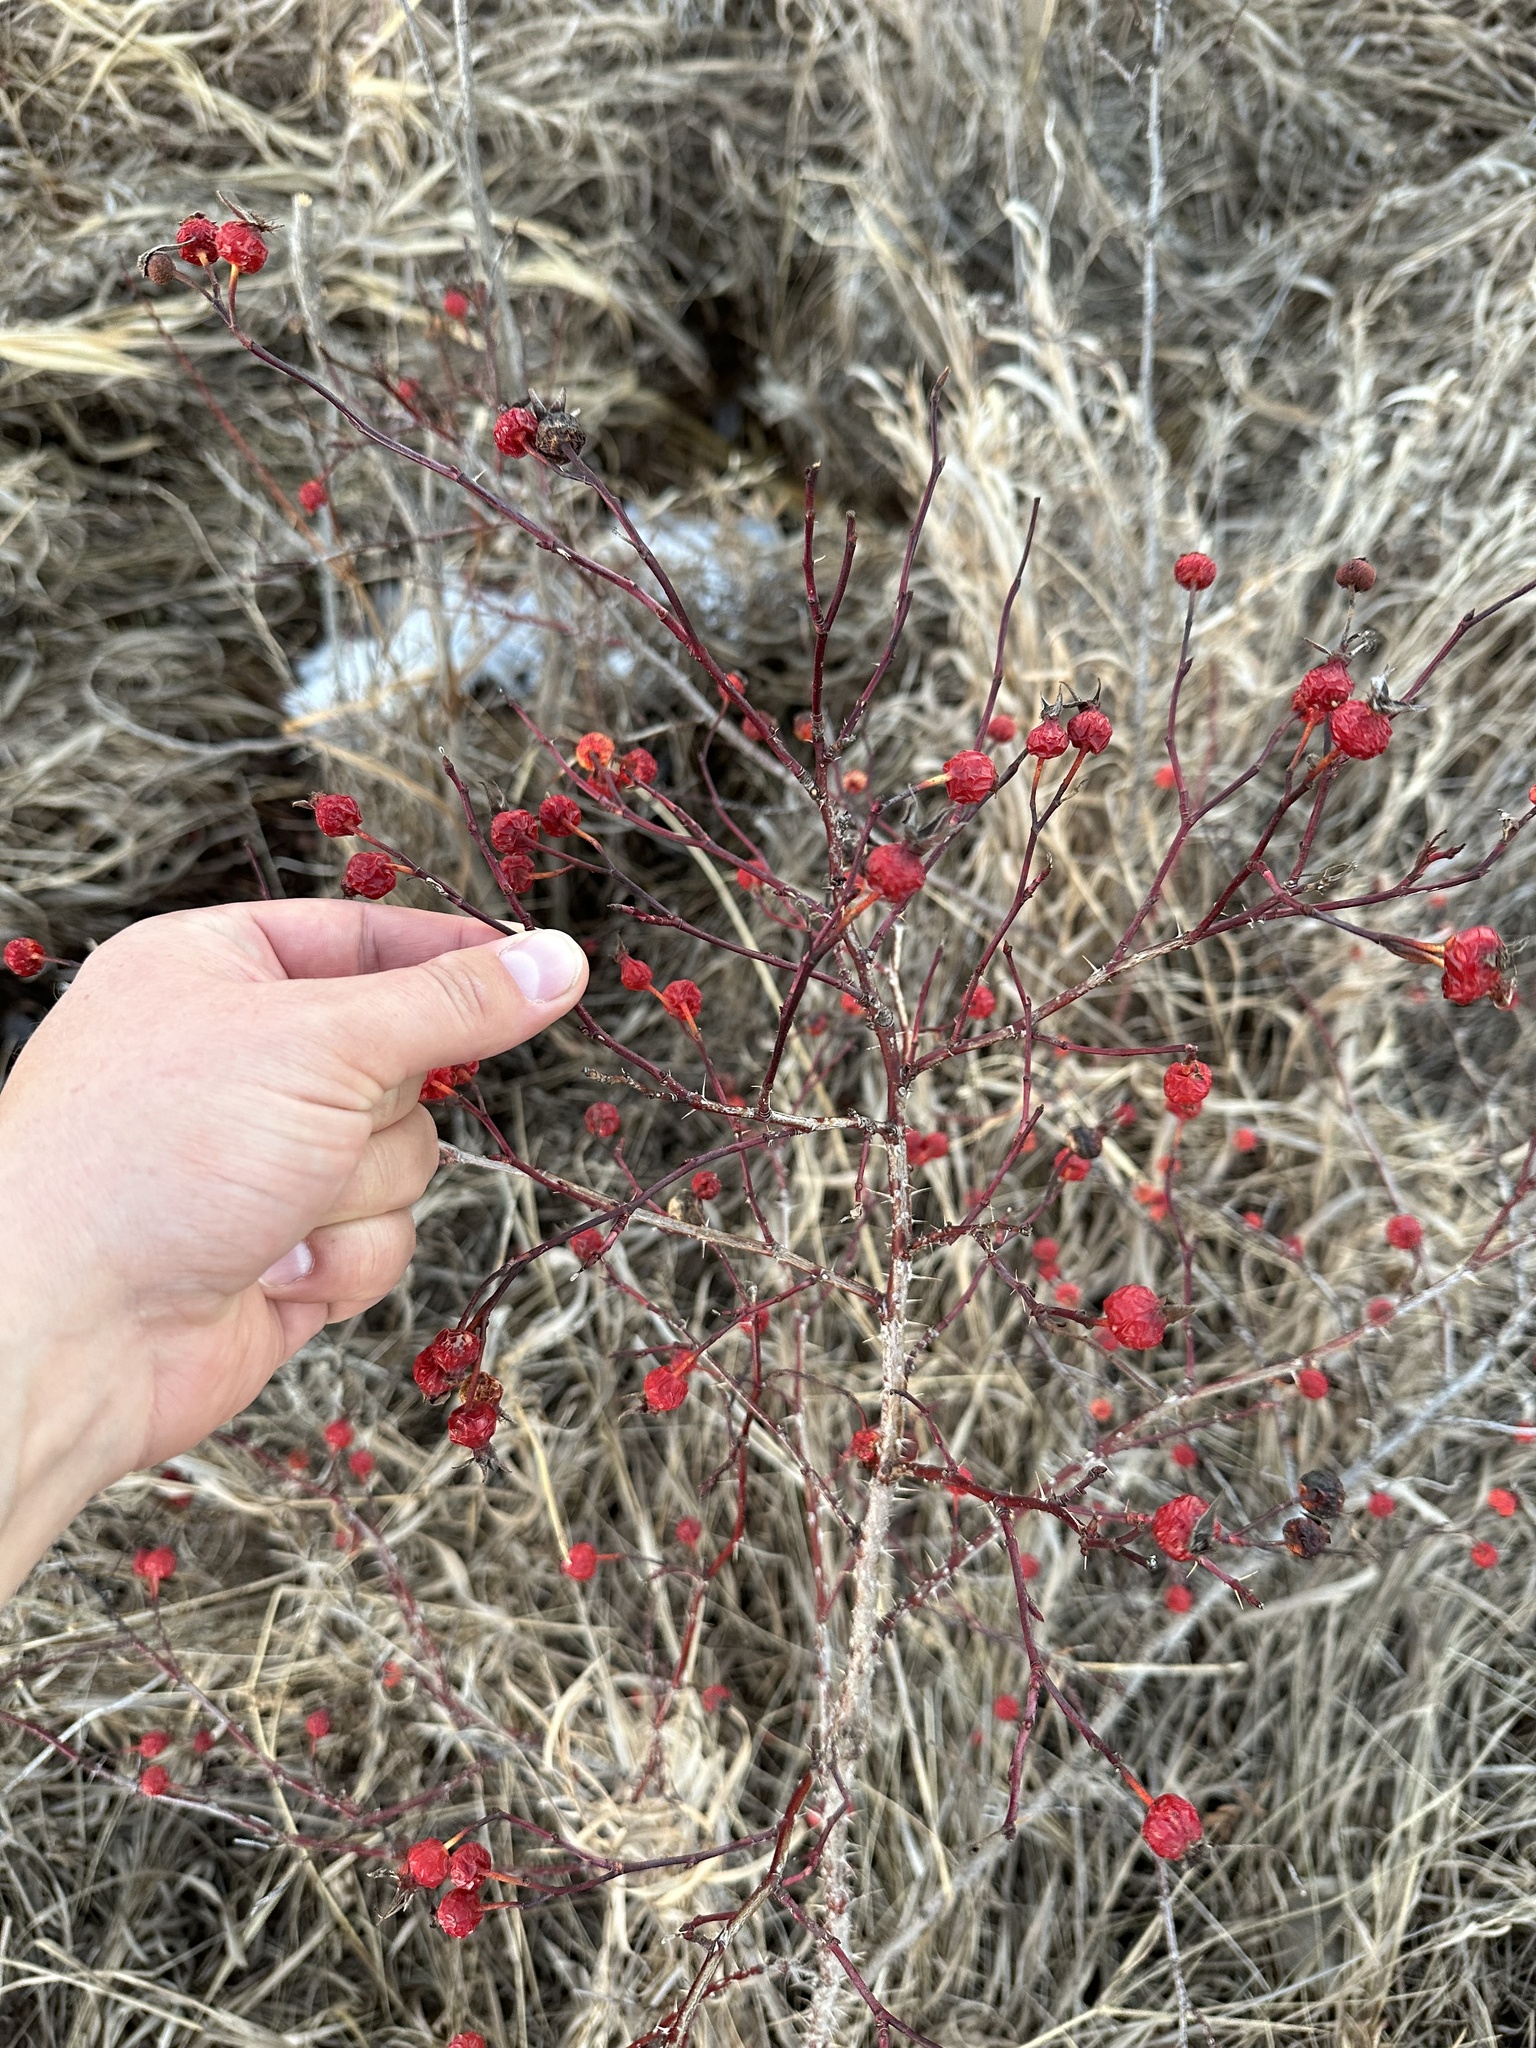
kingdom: Plantae
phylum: Tracheophyta
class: Magnoliopsida
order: Rosales
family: Rosaceae
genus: Rosa
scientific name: Rosa woodsii
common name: Woods's rose
